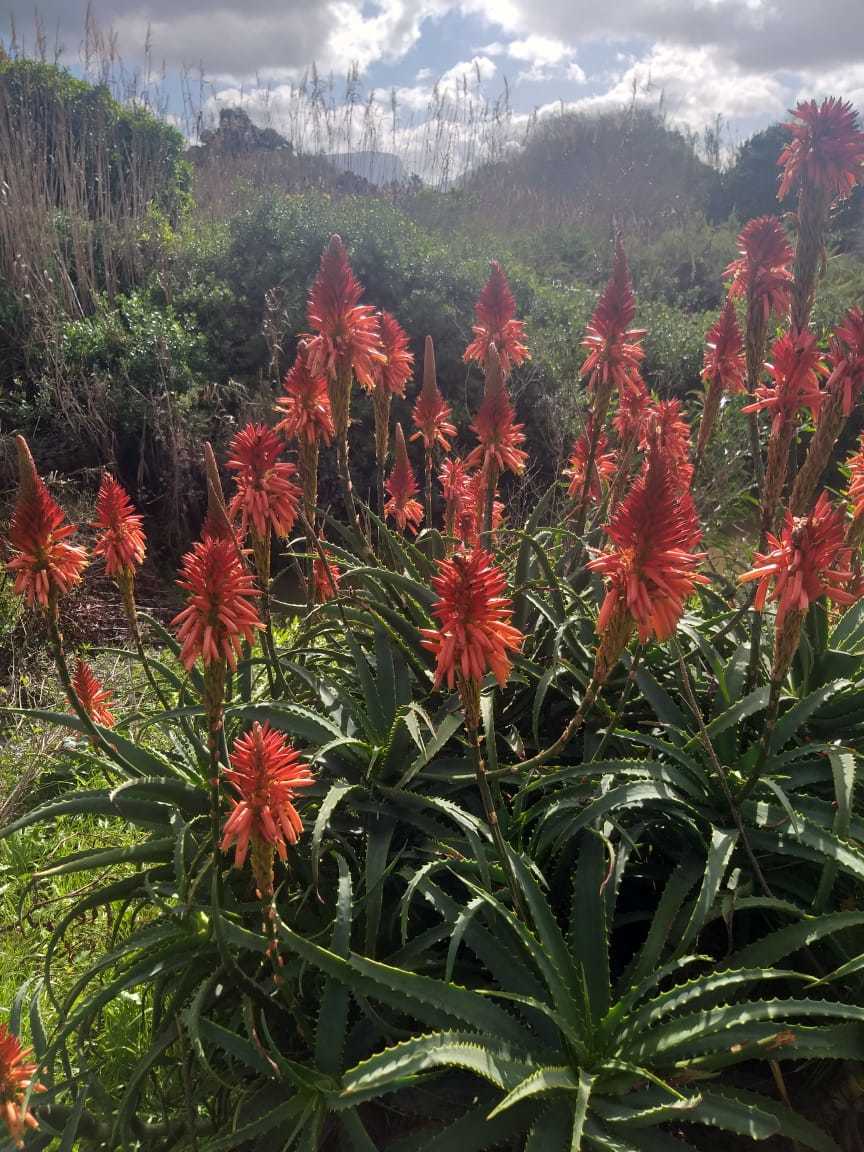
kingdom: Plantae
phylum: Tracheophyta
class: Liliopsida
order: Asparagales
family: Asphodelaceae
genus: Aloe
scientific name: Aloe arborescens
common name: Candelabra aloe
